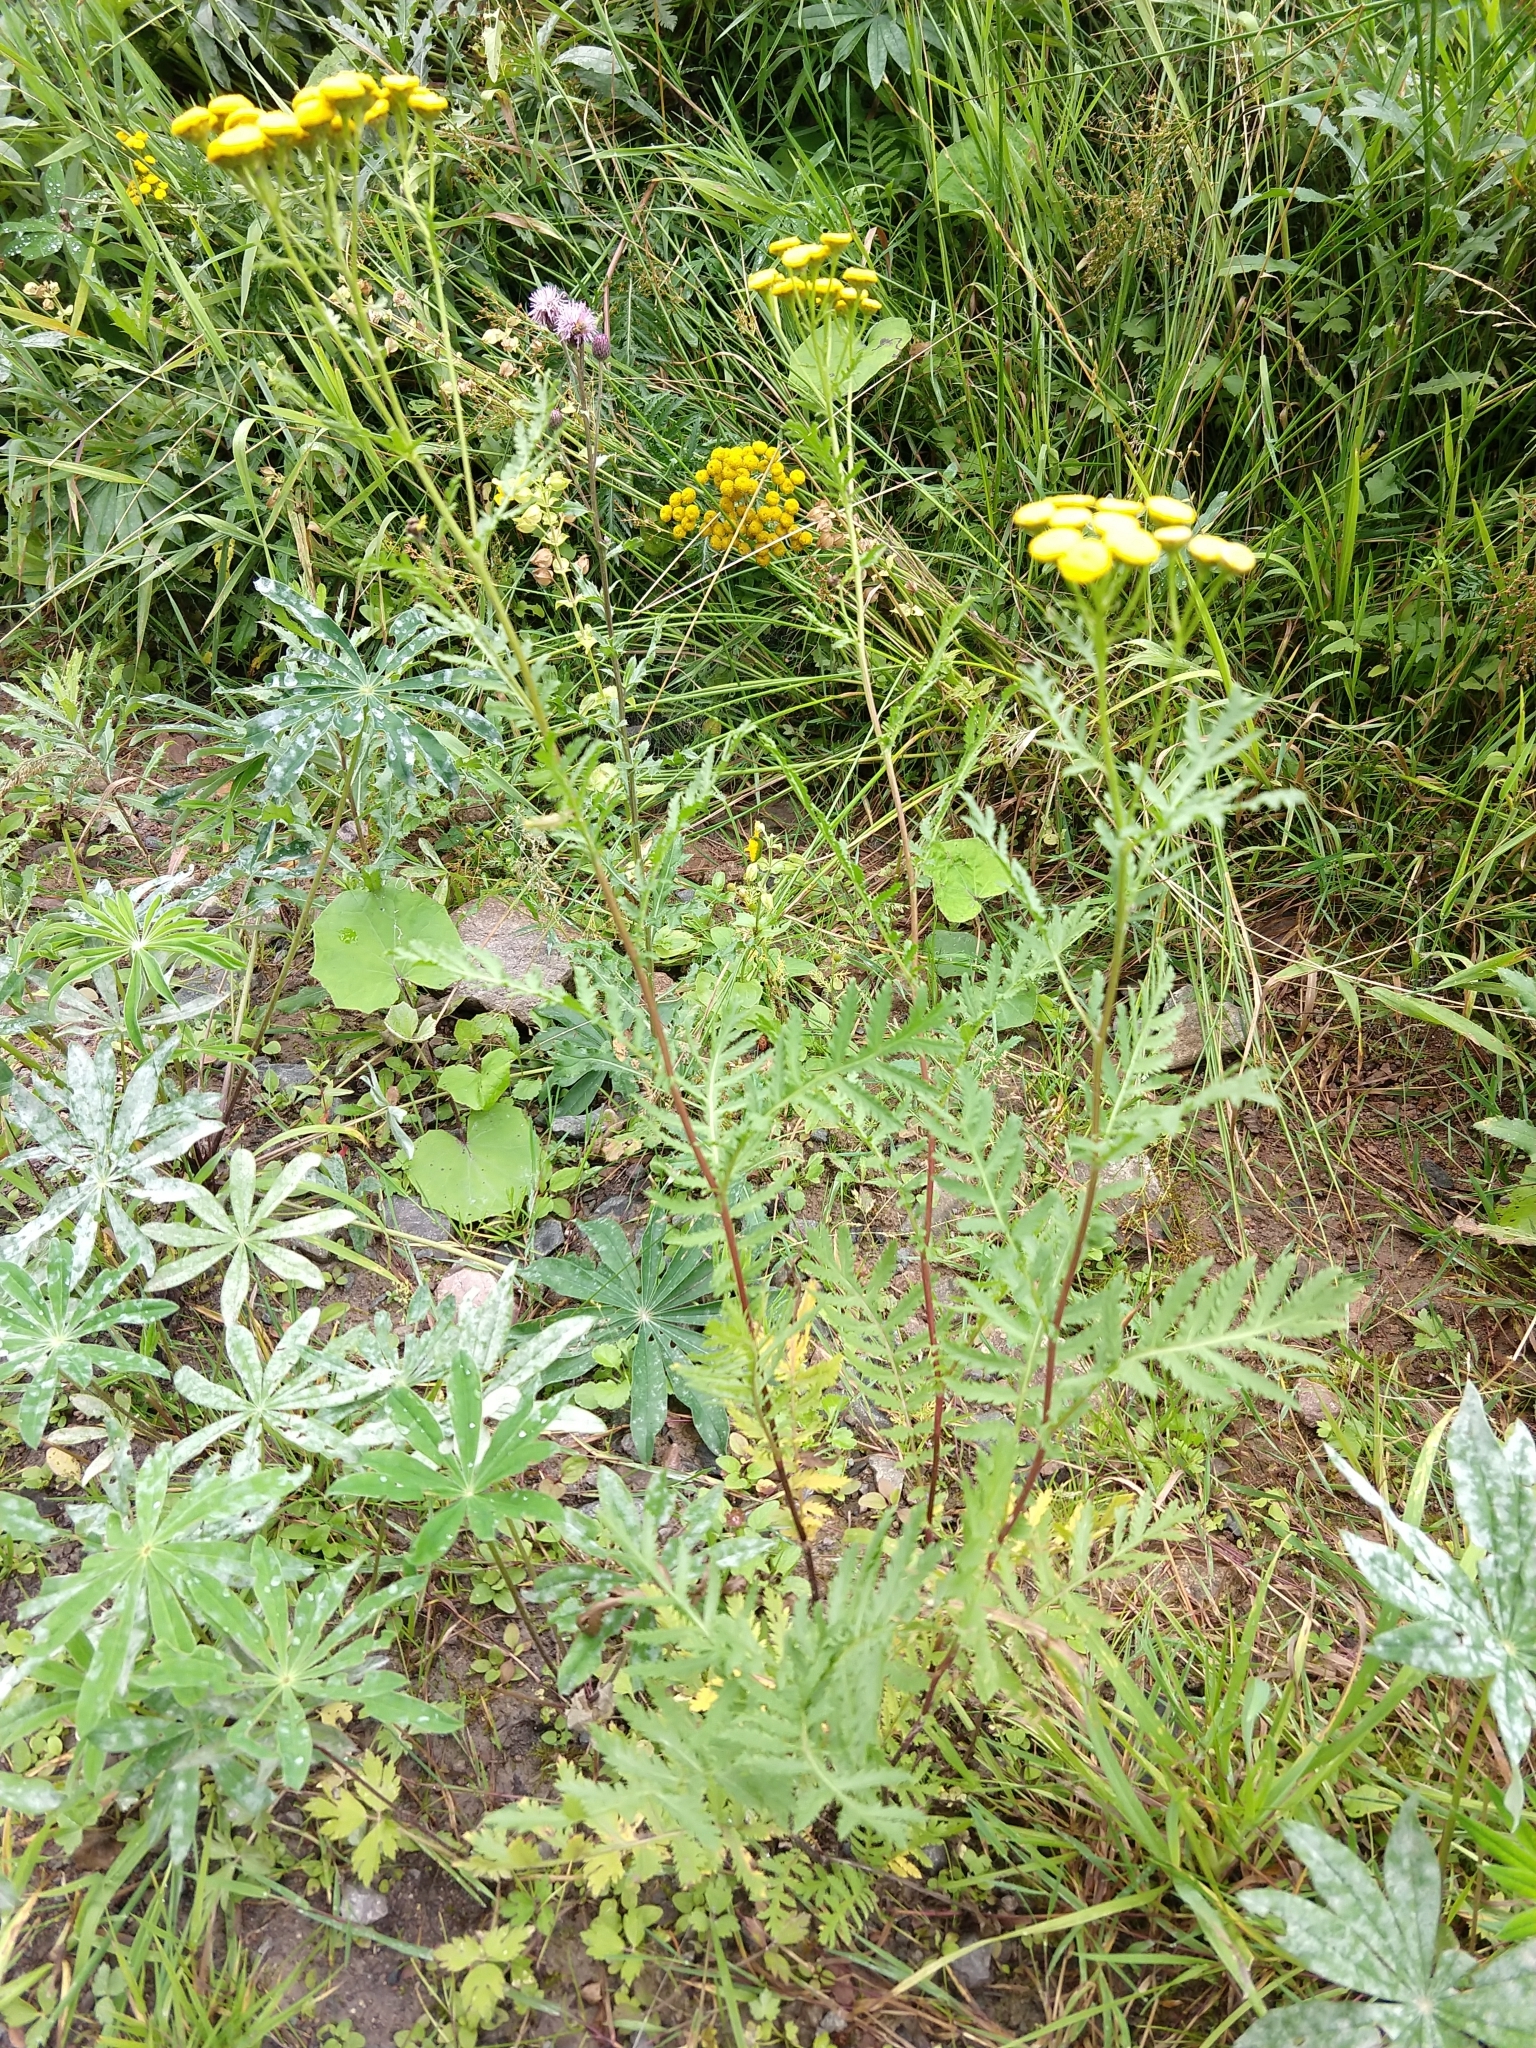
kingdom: Plantae
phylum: Tracheophyta
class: Magnoliopsida
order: Asterales
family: Asteraceae
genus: Tanacetum
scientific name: Tanacetum vulgare
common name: Common tansy
